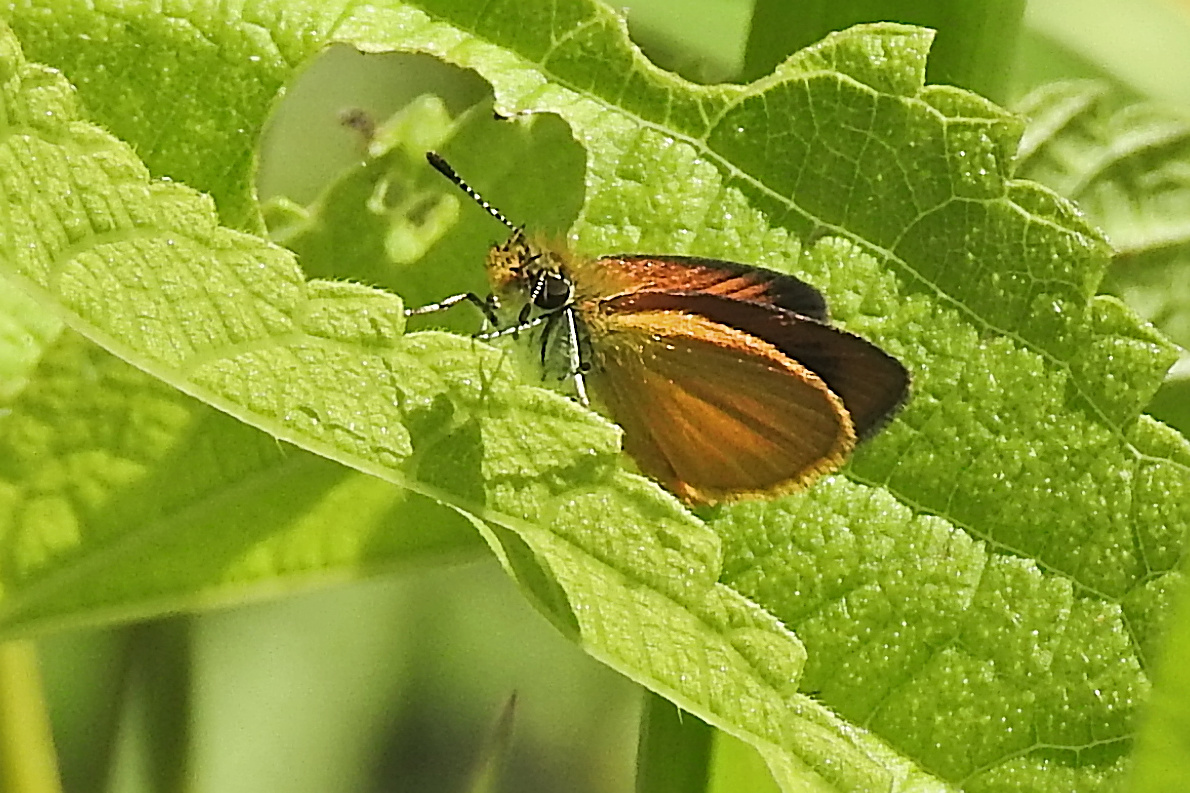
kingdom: Animalia
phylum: Arthropoda
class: Insecta
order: Lepidoptera
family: Hesperiidae
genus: Ancyloxypha
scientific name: Ancyloxypha numitor
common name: Least skipper
